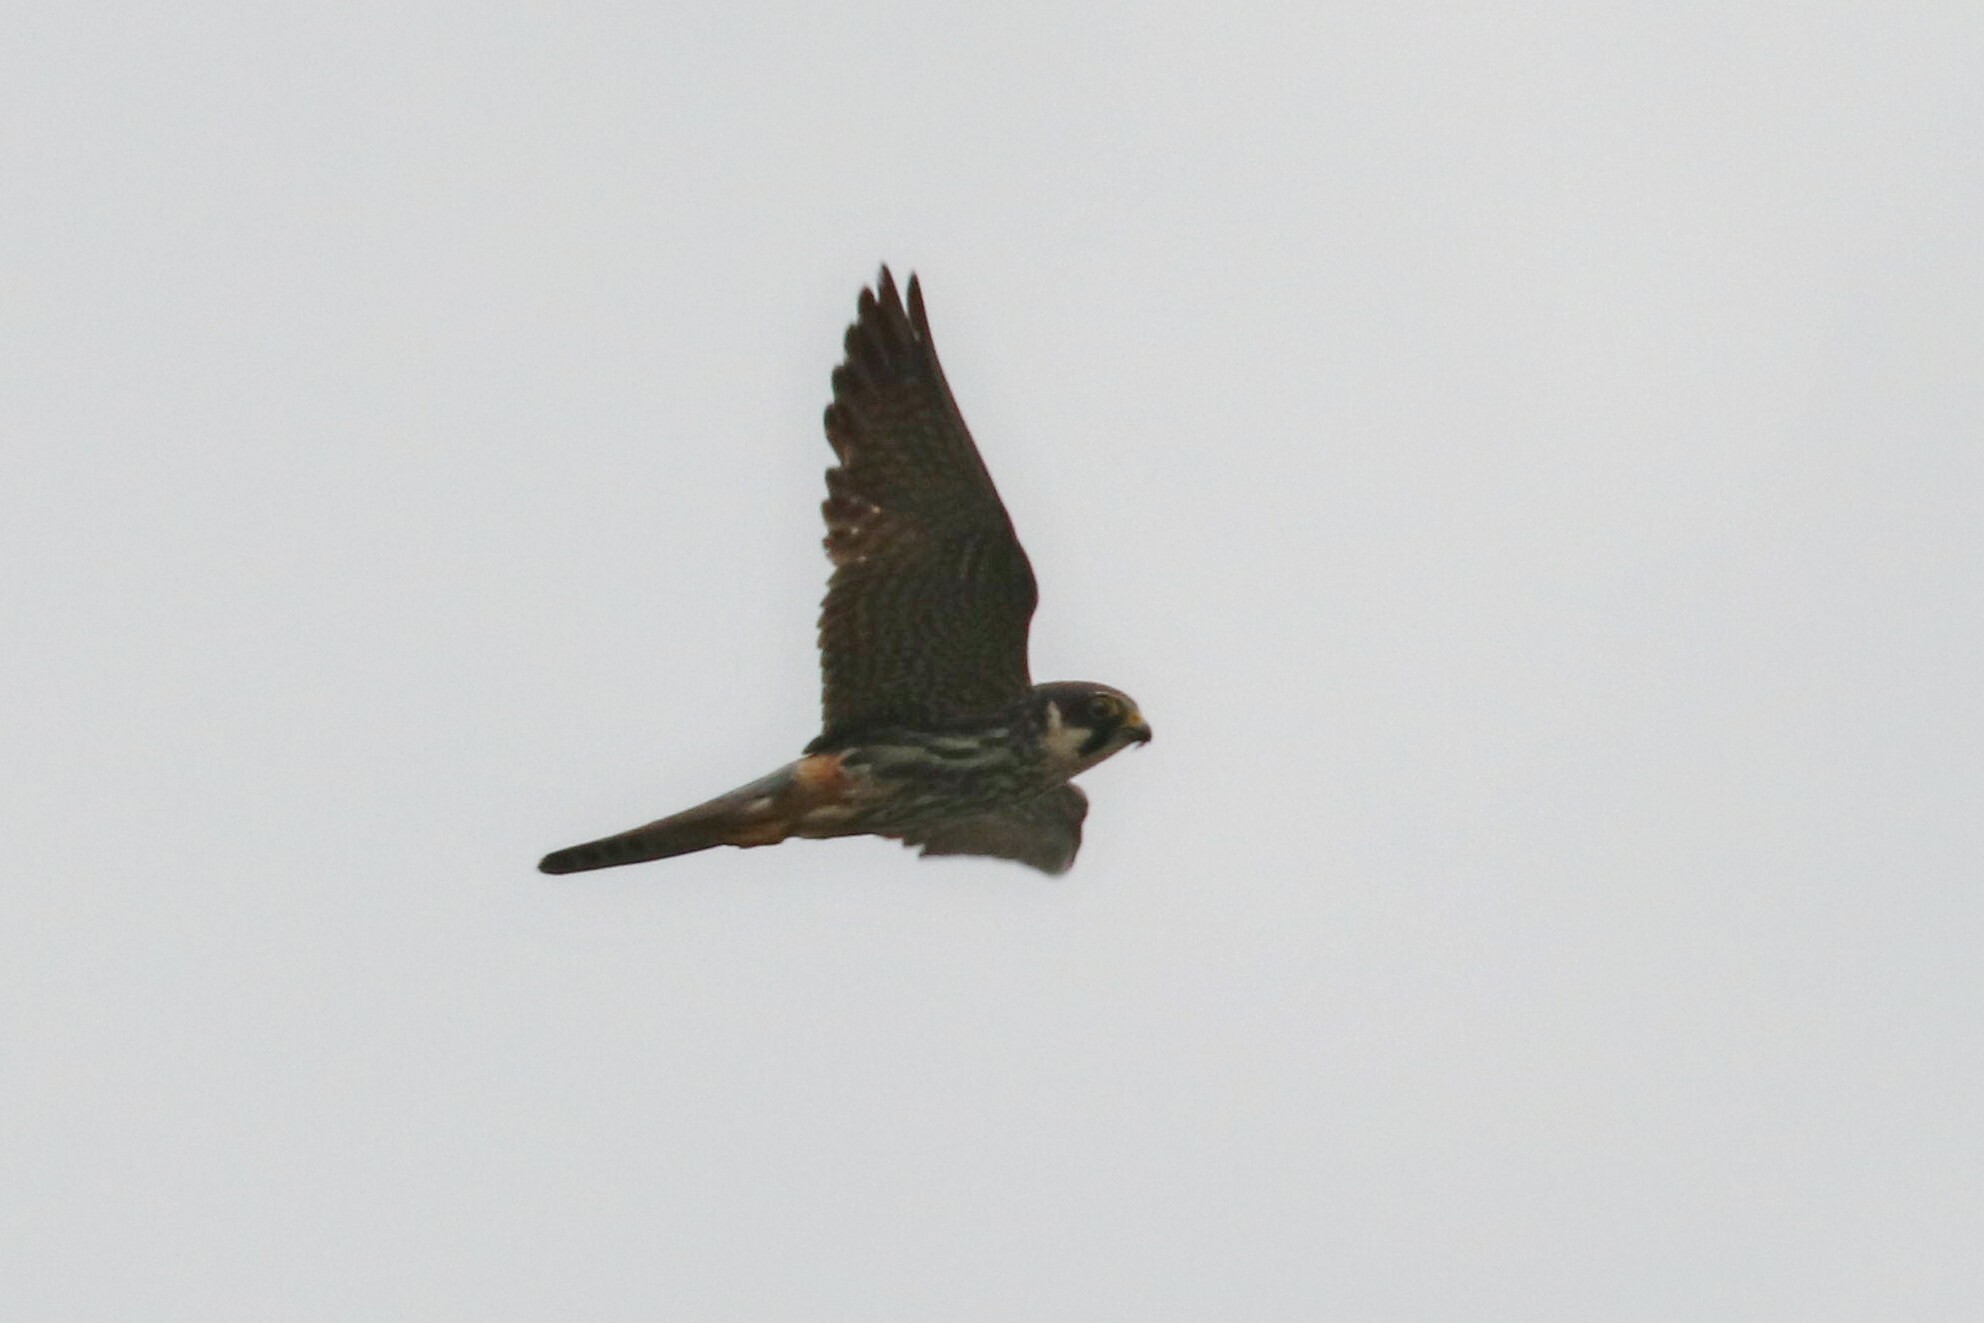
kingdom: Animalia
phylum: Chordata
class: Aves
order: Falconiformes
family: Falconidae
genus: Falco
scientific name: Falco subbuteo
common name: Eurasian hobby
